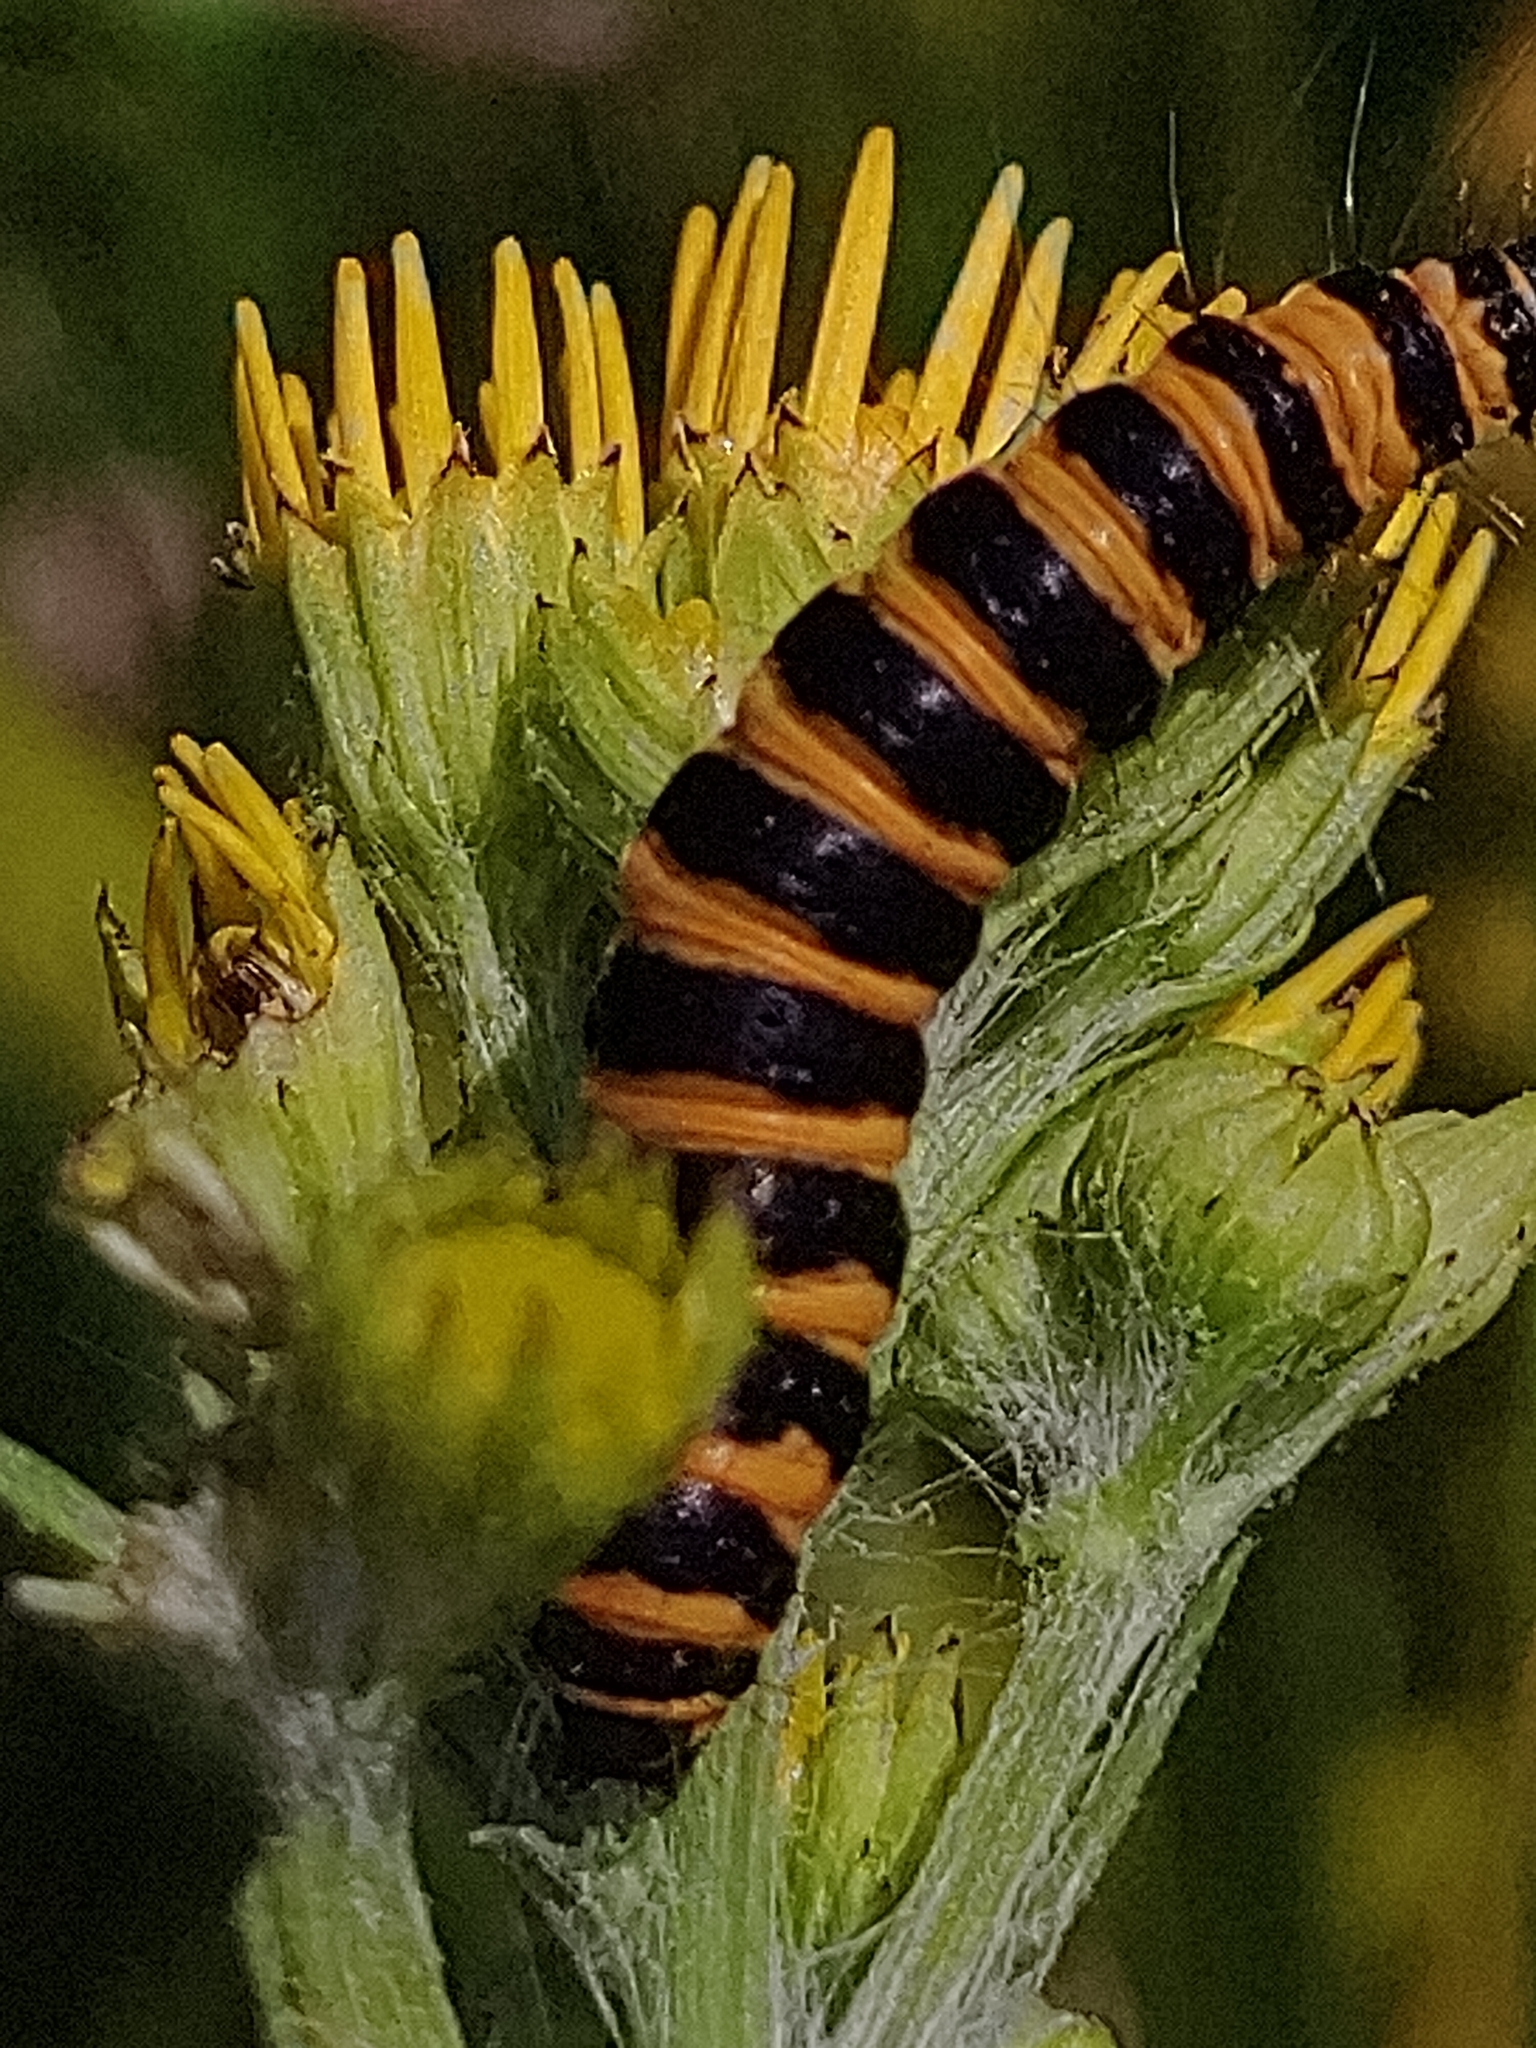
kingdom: Animalia
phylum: Arthropoda
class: Insecta
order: Lepidoptera
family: Erebidae
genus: Tyria
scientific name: Tyria jacobaeae
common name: Cinnabar
